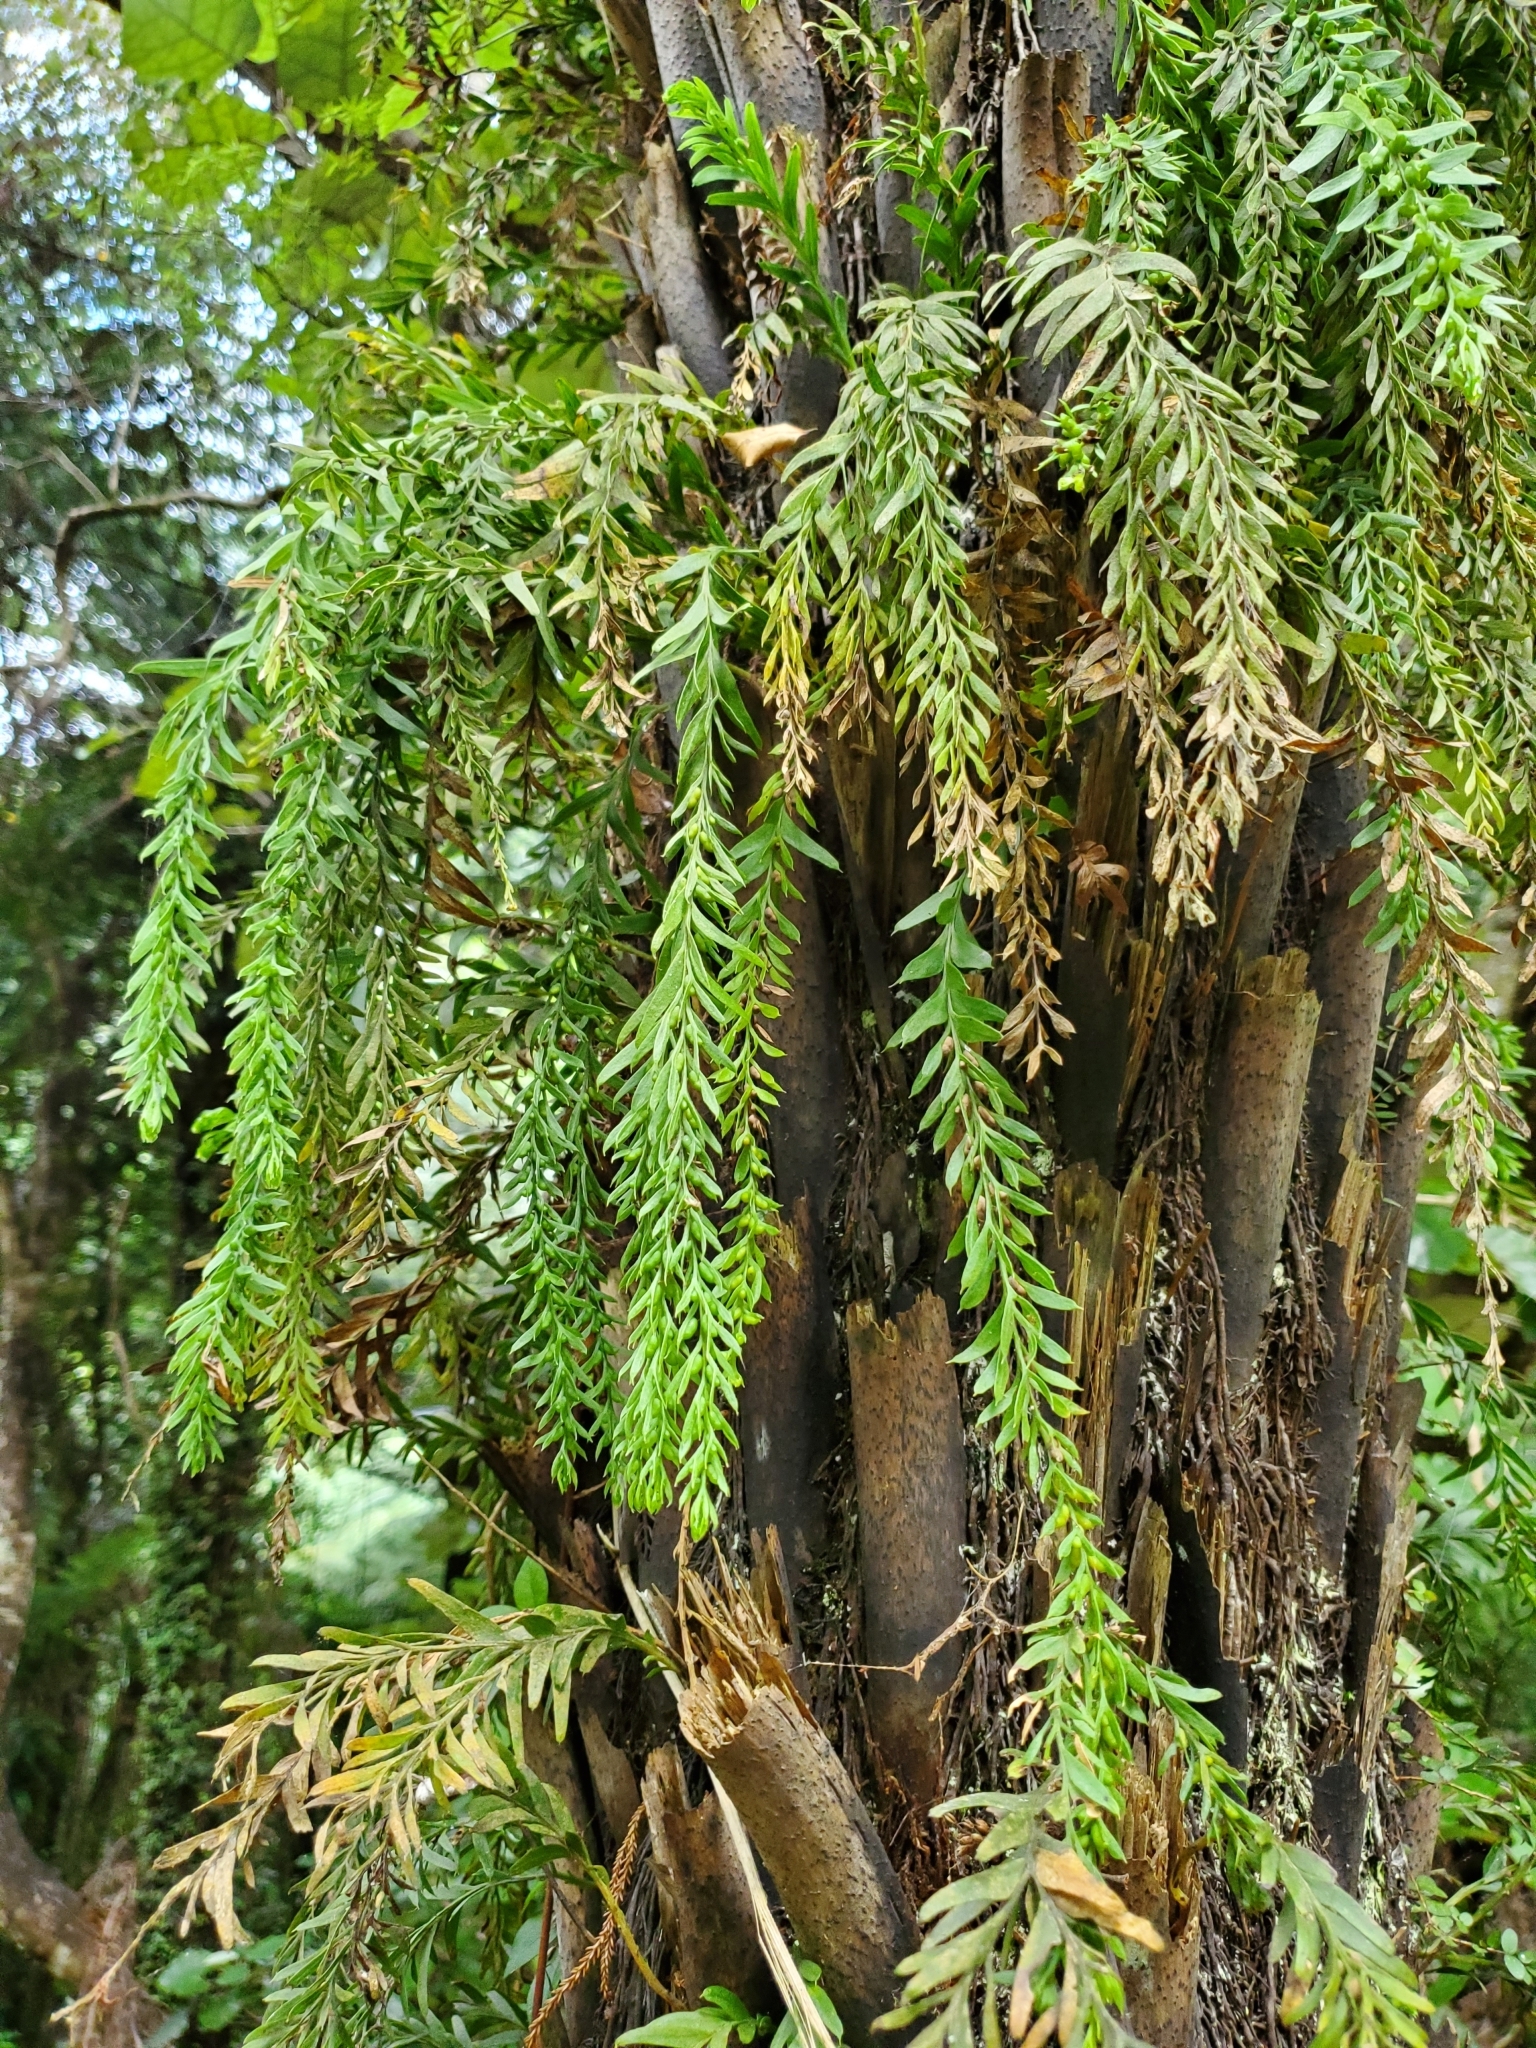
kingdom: Plantae
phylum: Tracheophyta
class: Polypodiopsida
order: Psilotales
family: Psilotaceae
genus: Tmesipteris
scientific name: Tmesipteris elongata
